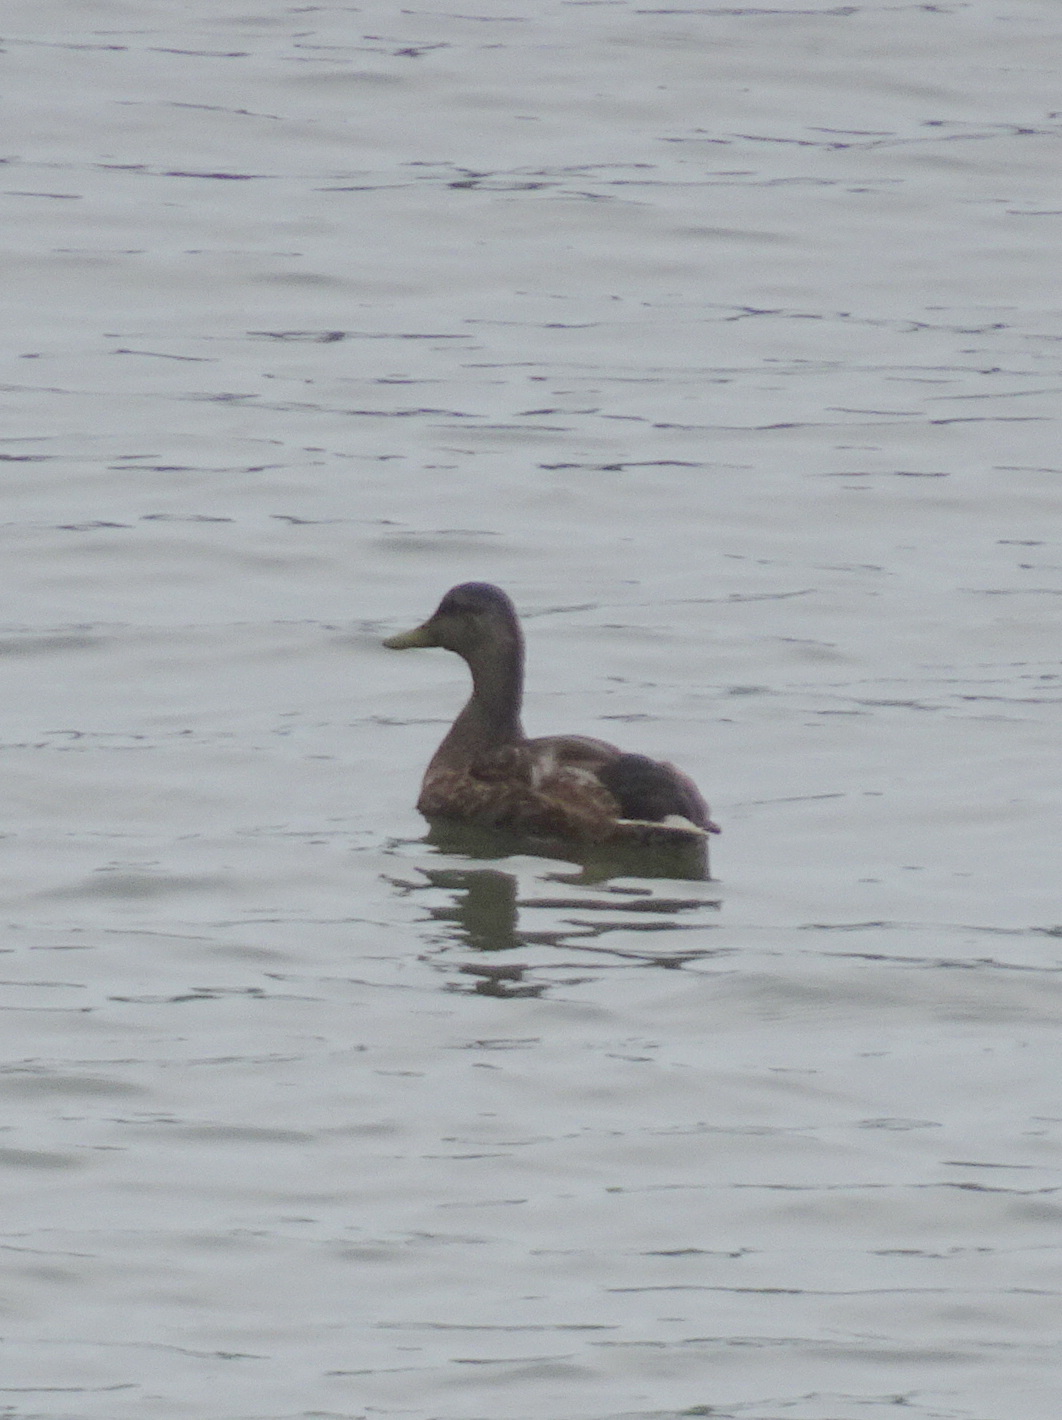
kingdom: Animalia
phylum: Chordata
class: Aves
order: Anseriformes
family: Anatidae
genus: Anas
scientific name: Anas platyrhynchos
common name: Mallard
